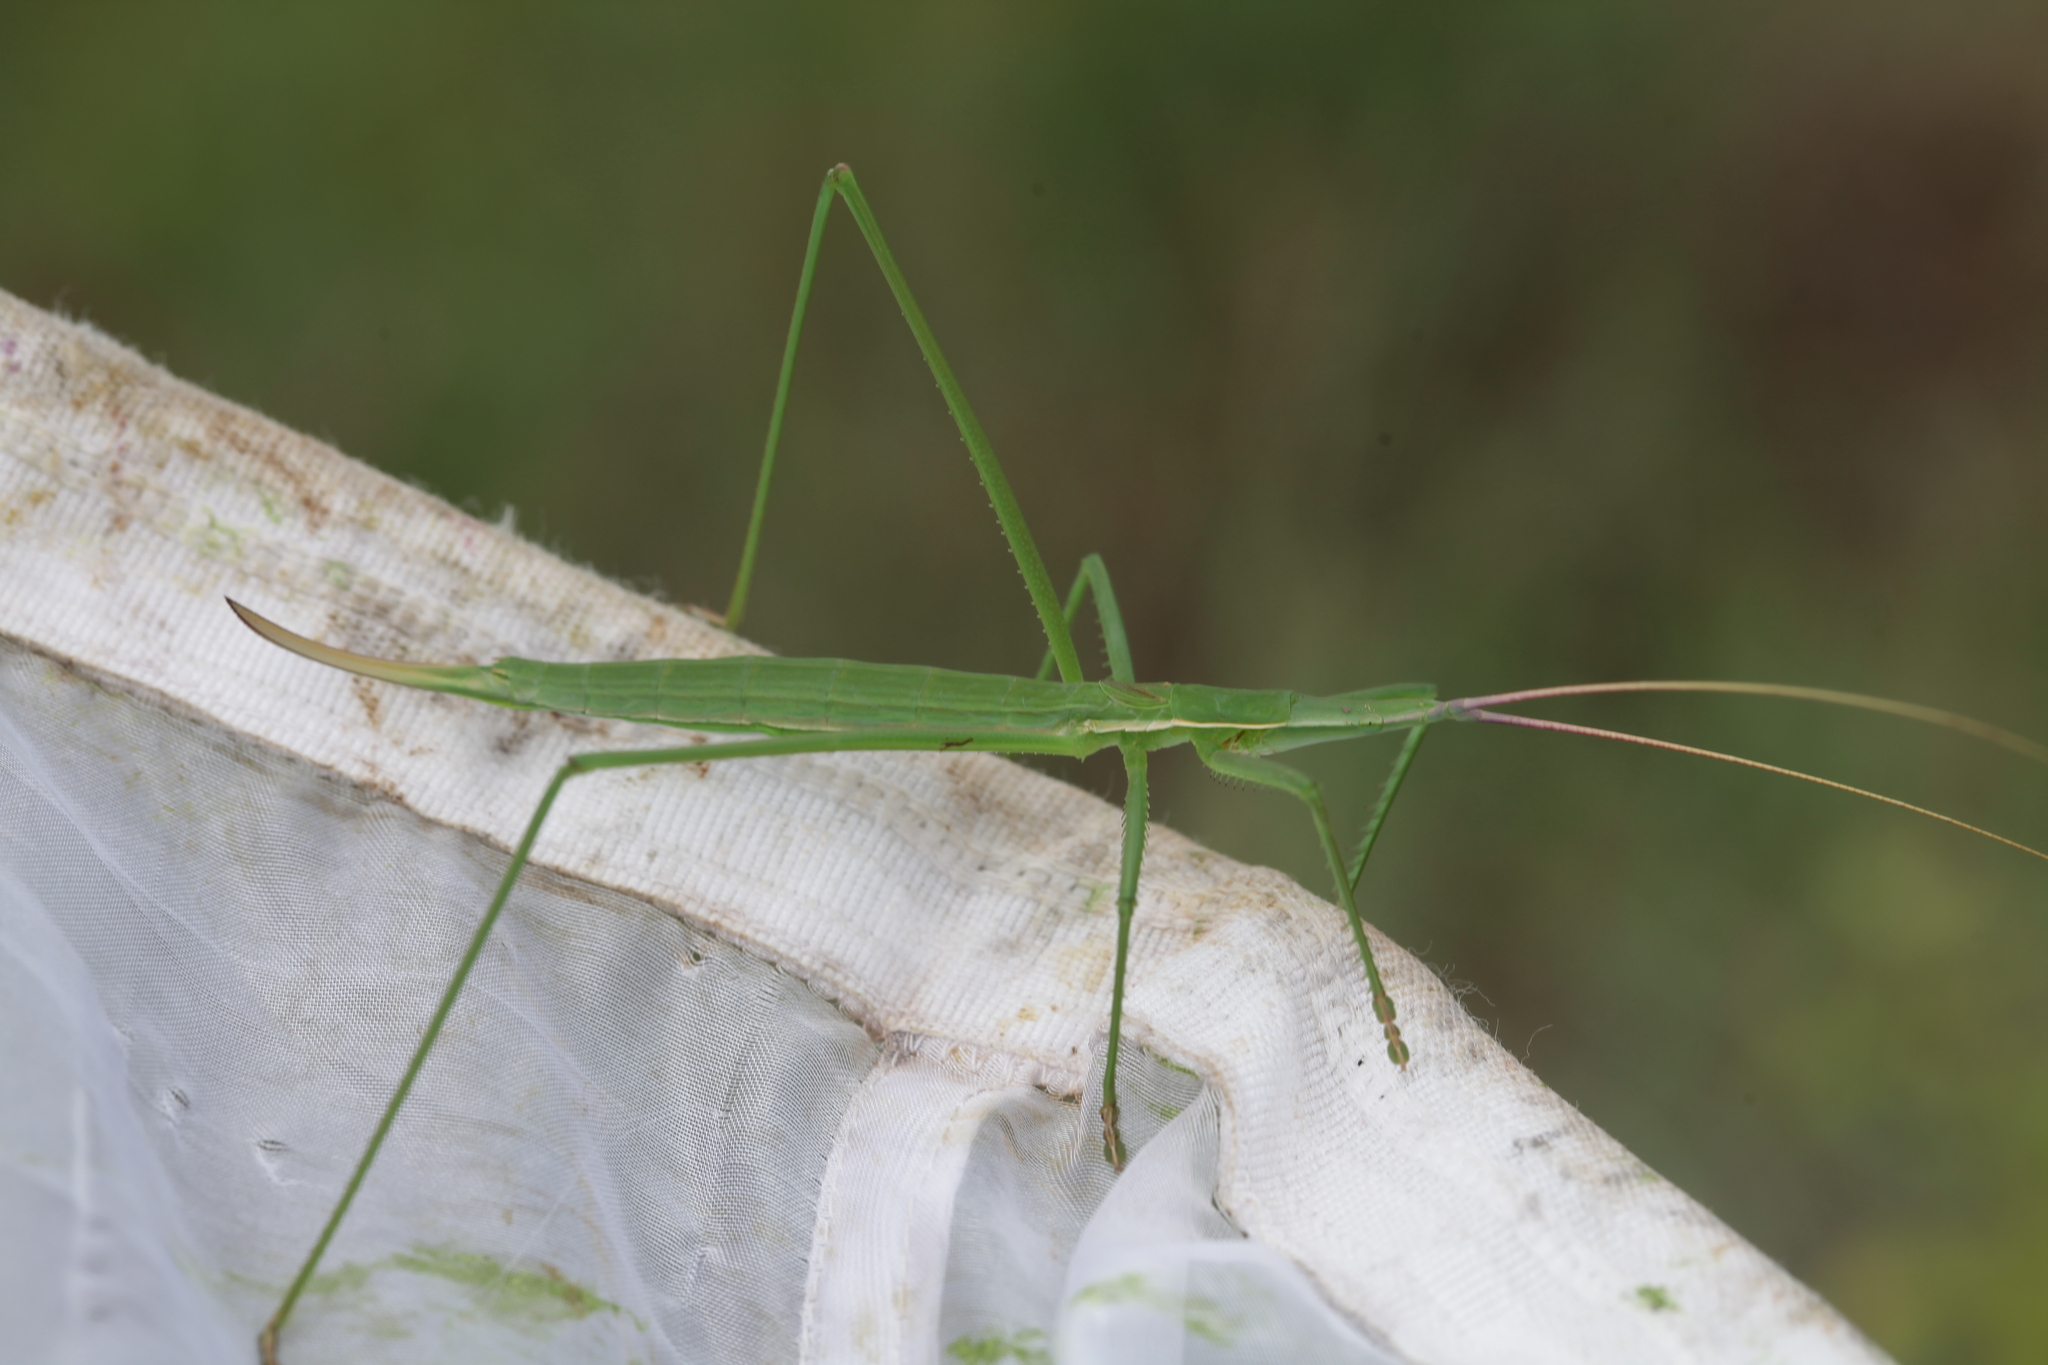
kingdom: Animalia
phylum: Arthropoda
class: Insecta
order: Orthoptera
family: Tettigoniidae
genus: Peringueyella
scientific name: Peringueyella jocosa
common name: Peringuey's ambush katydid
